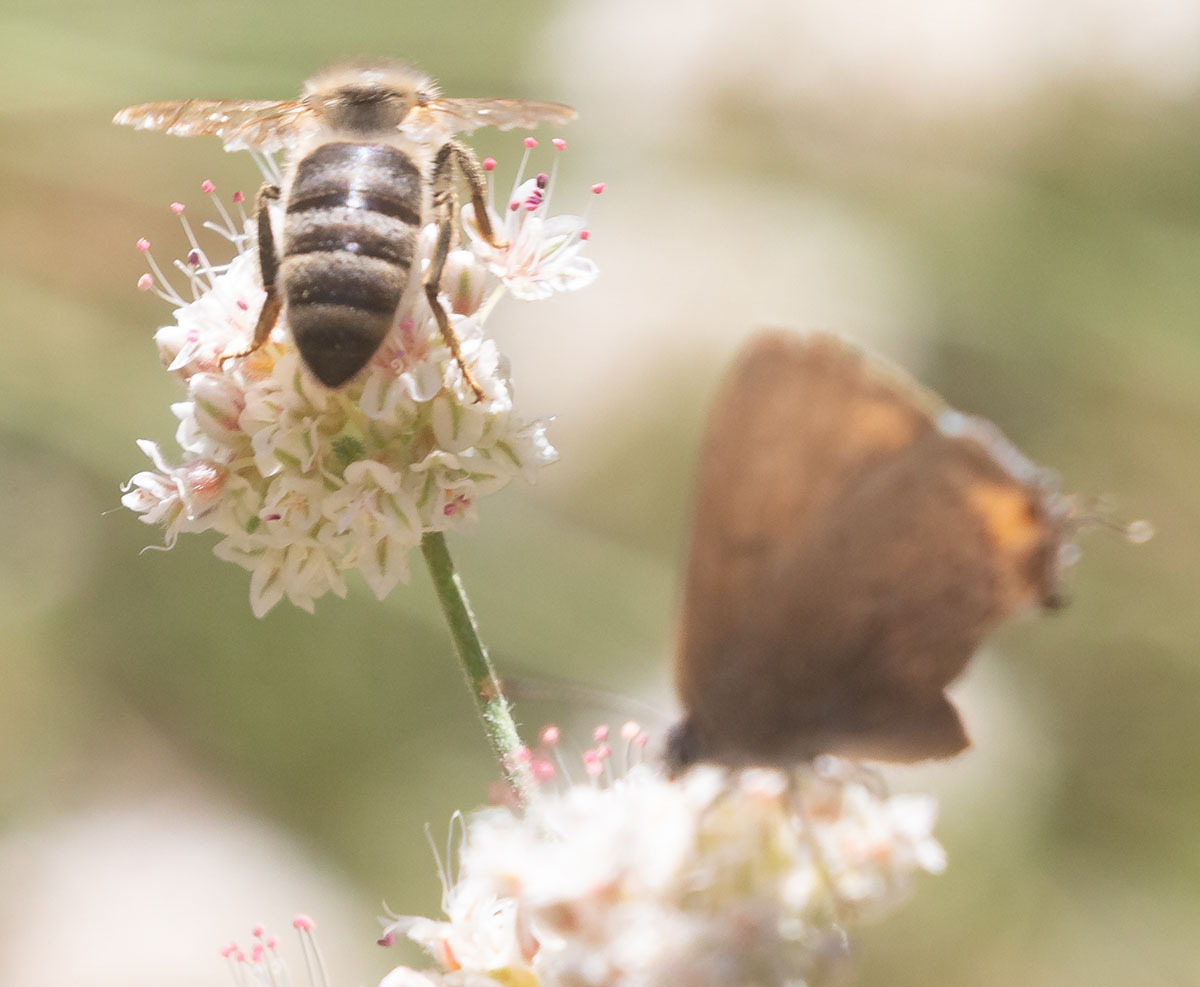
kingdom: Animalia
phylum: Arthropoda
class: Insecta
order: Hymenoptera
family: Apidae
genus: Apis
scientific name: Apis mellifera
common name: Honey bee
